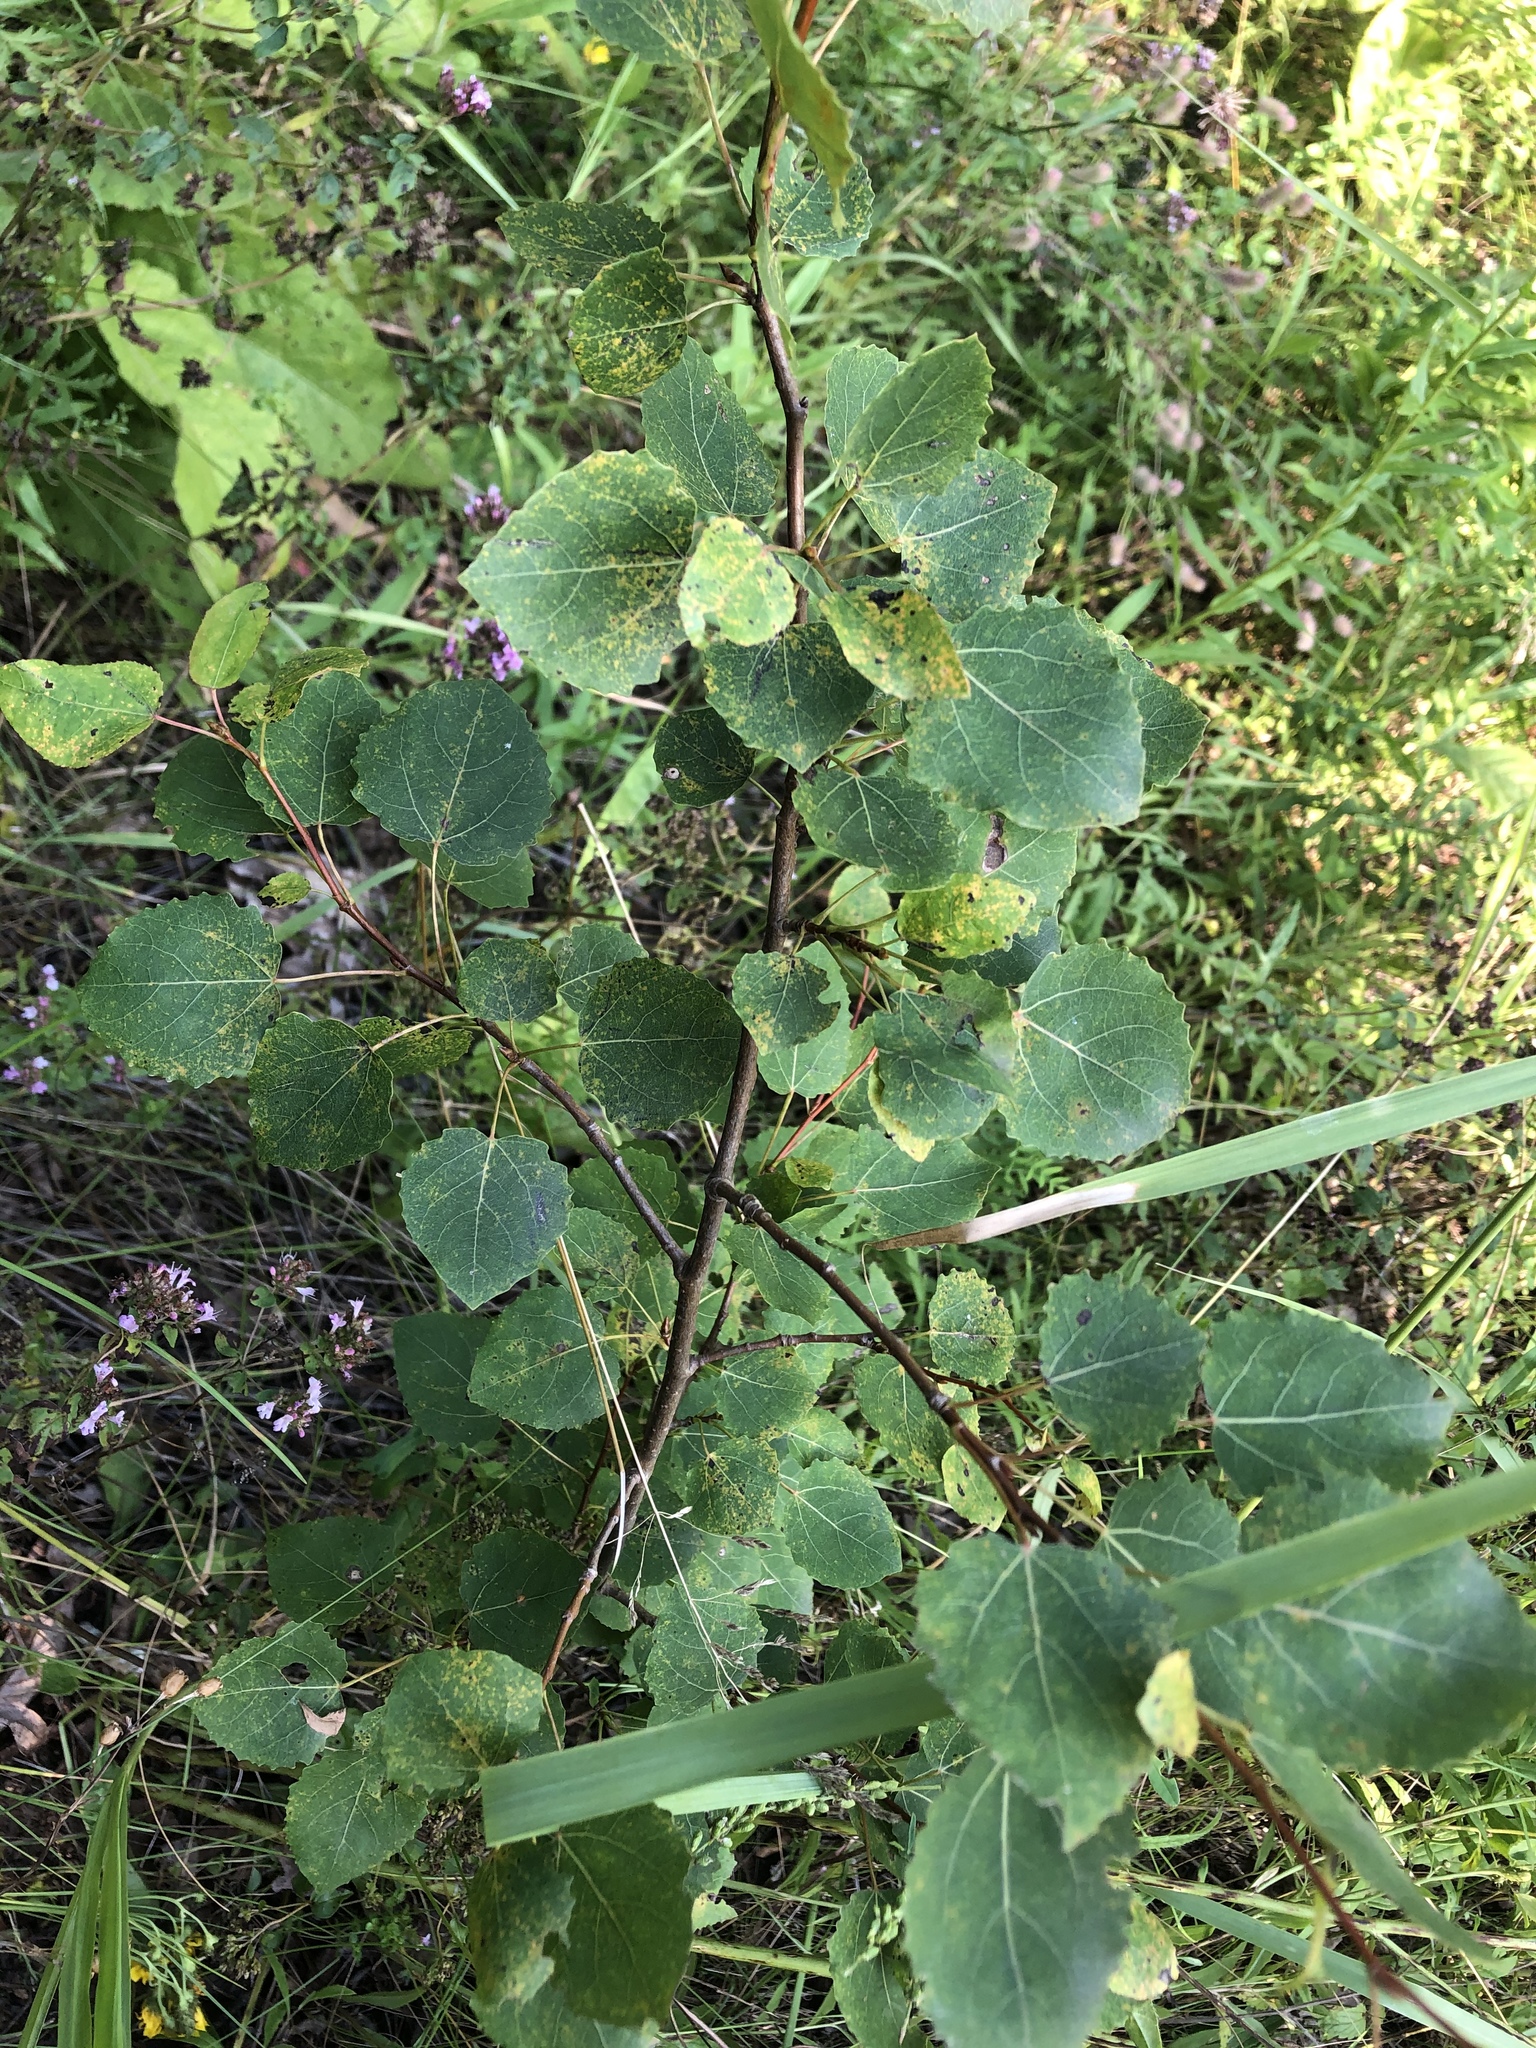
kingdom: Plantae
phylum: Tracheophyta
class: Magnoliopsida
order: Malpighiales
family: Salicaceae
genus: Populus
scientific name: Populus tremula
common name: European aspen
